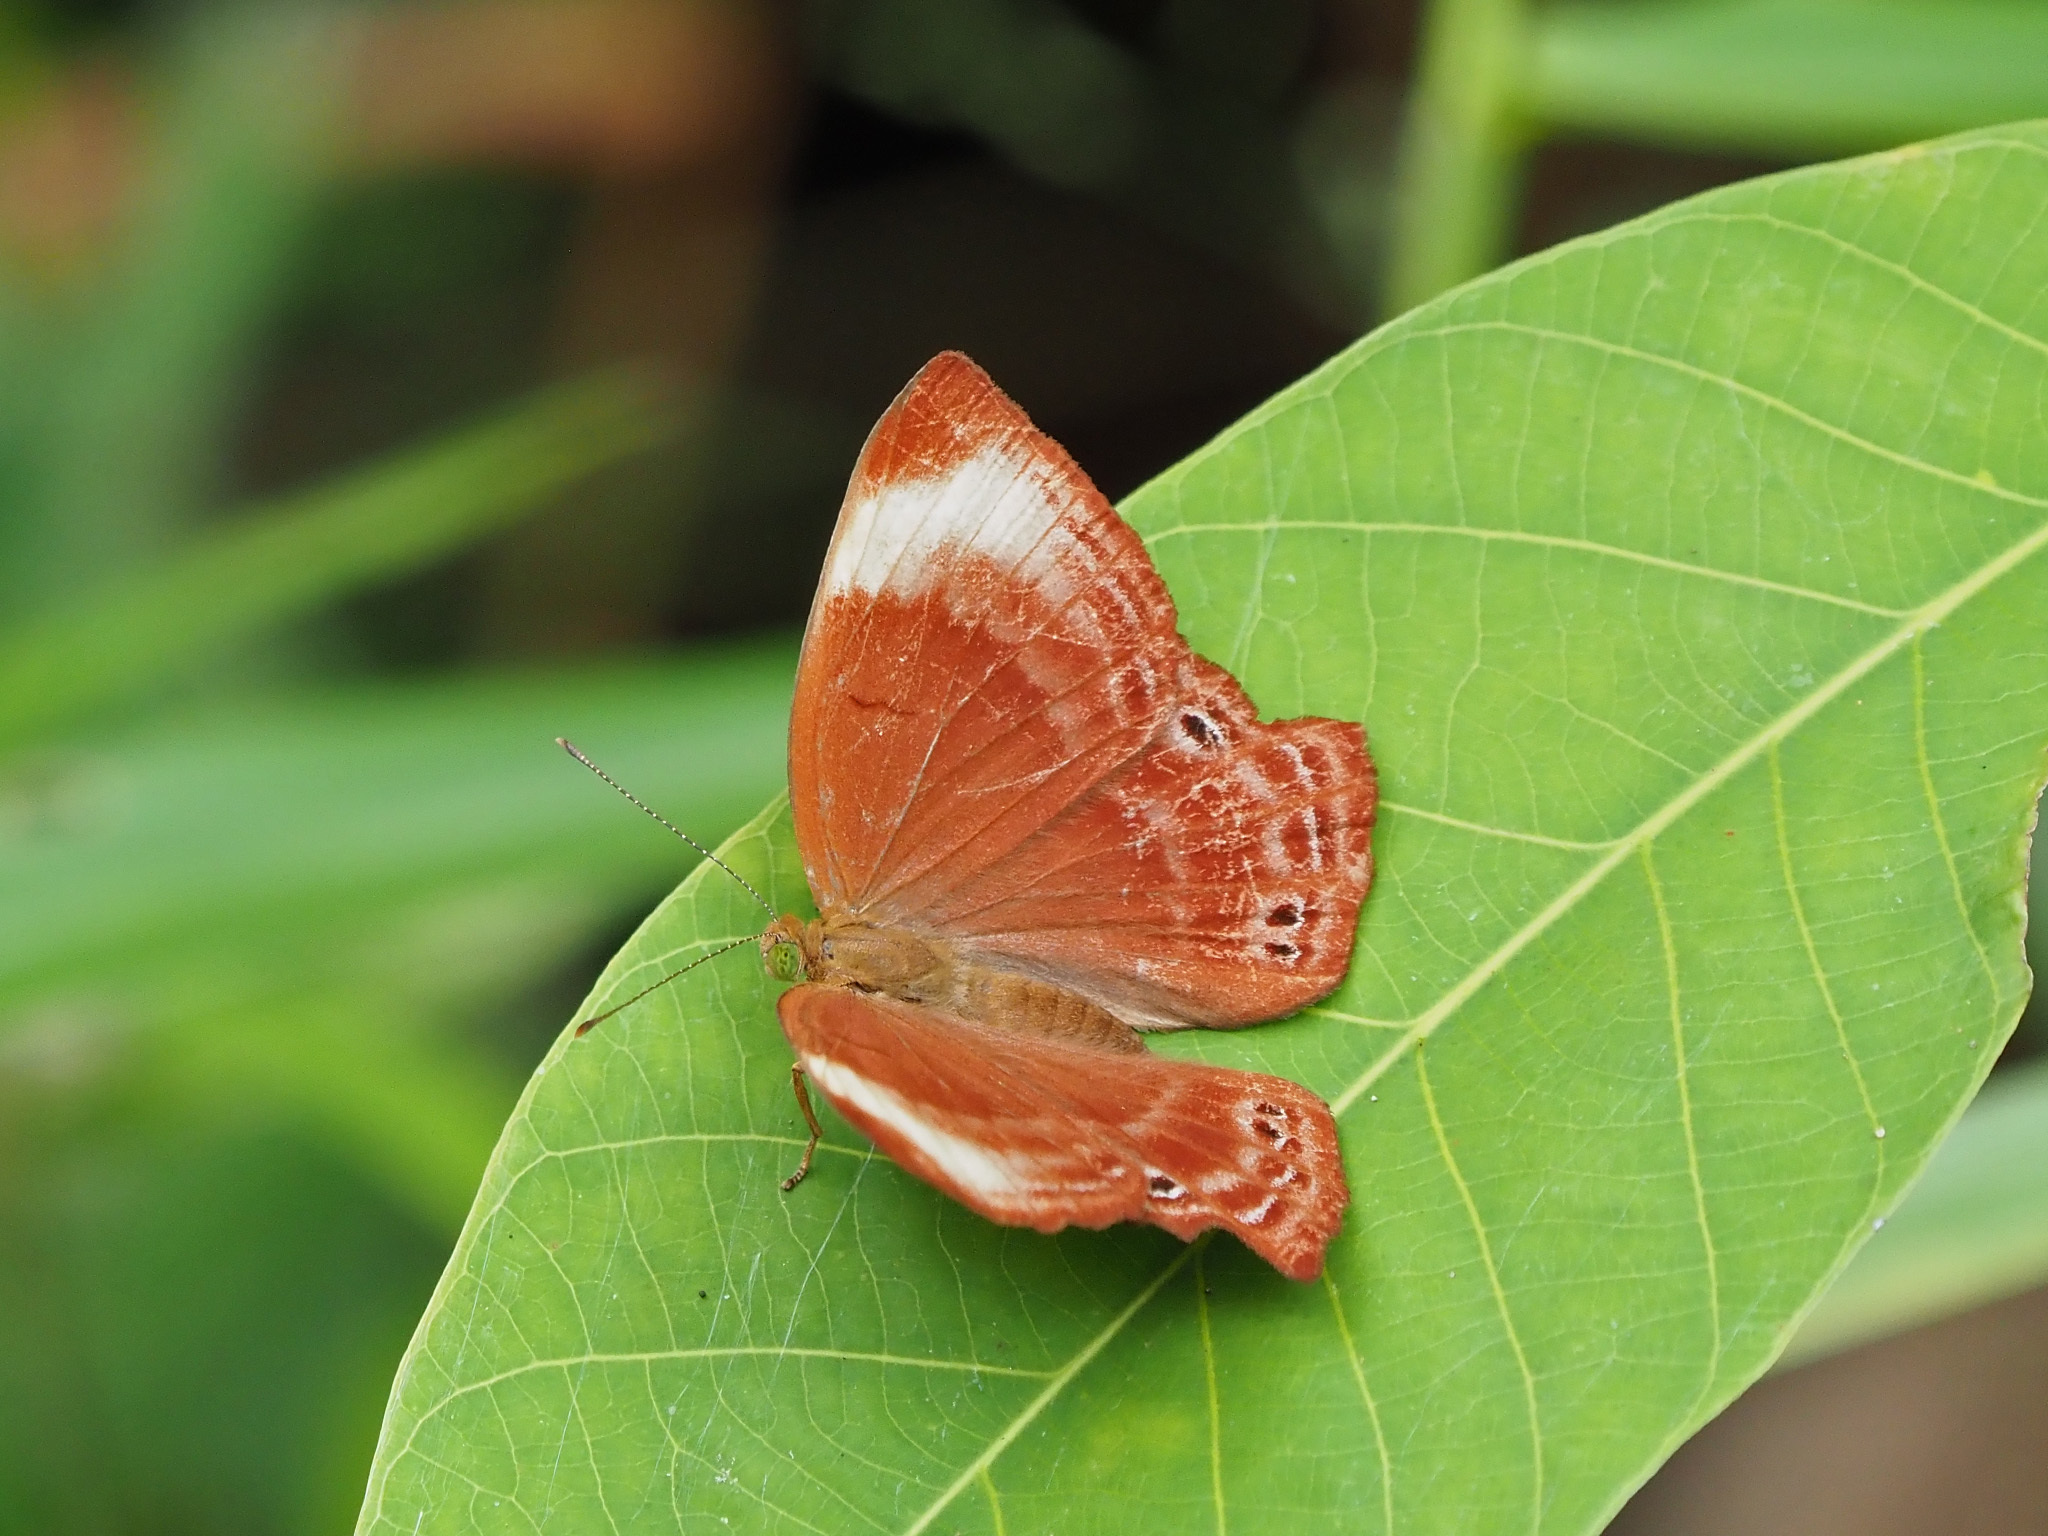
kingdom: Animalia
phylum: Arthropoda
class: Insecta
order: Lepidoptera
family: Lycaenidae
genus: Abisara
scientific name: Abisara saturata
